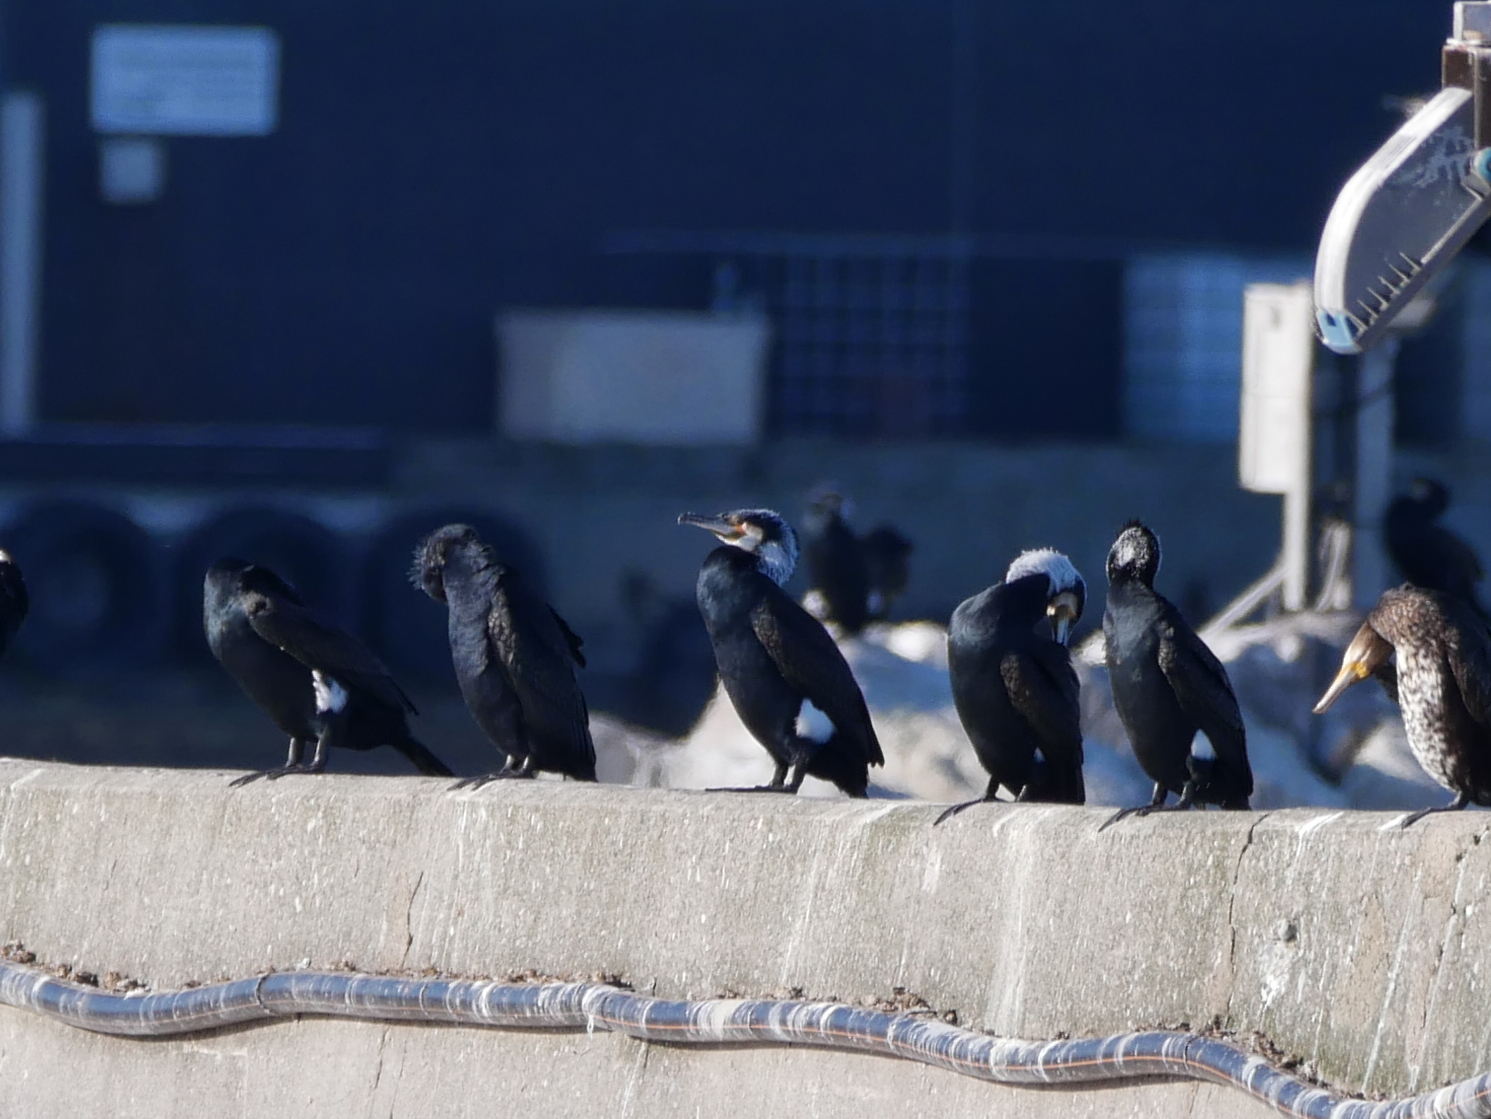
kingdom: Animalia
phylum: Chordata
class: Aves
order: Suliformes
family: Phalacrocoracidae
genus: Phalacrocorax
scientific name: Phalacrocorax carbo
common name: Great cormorant
